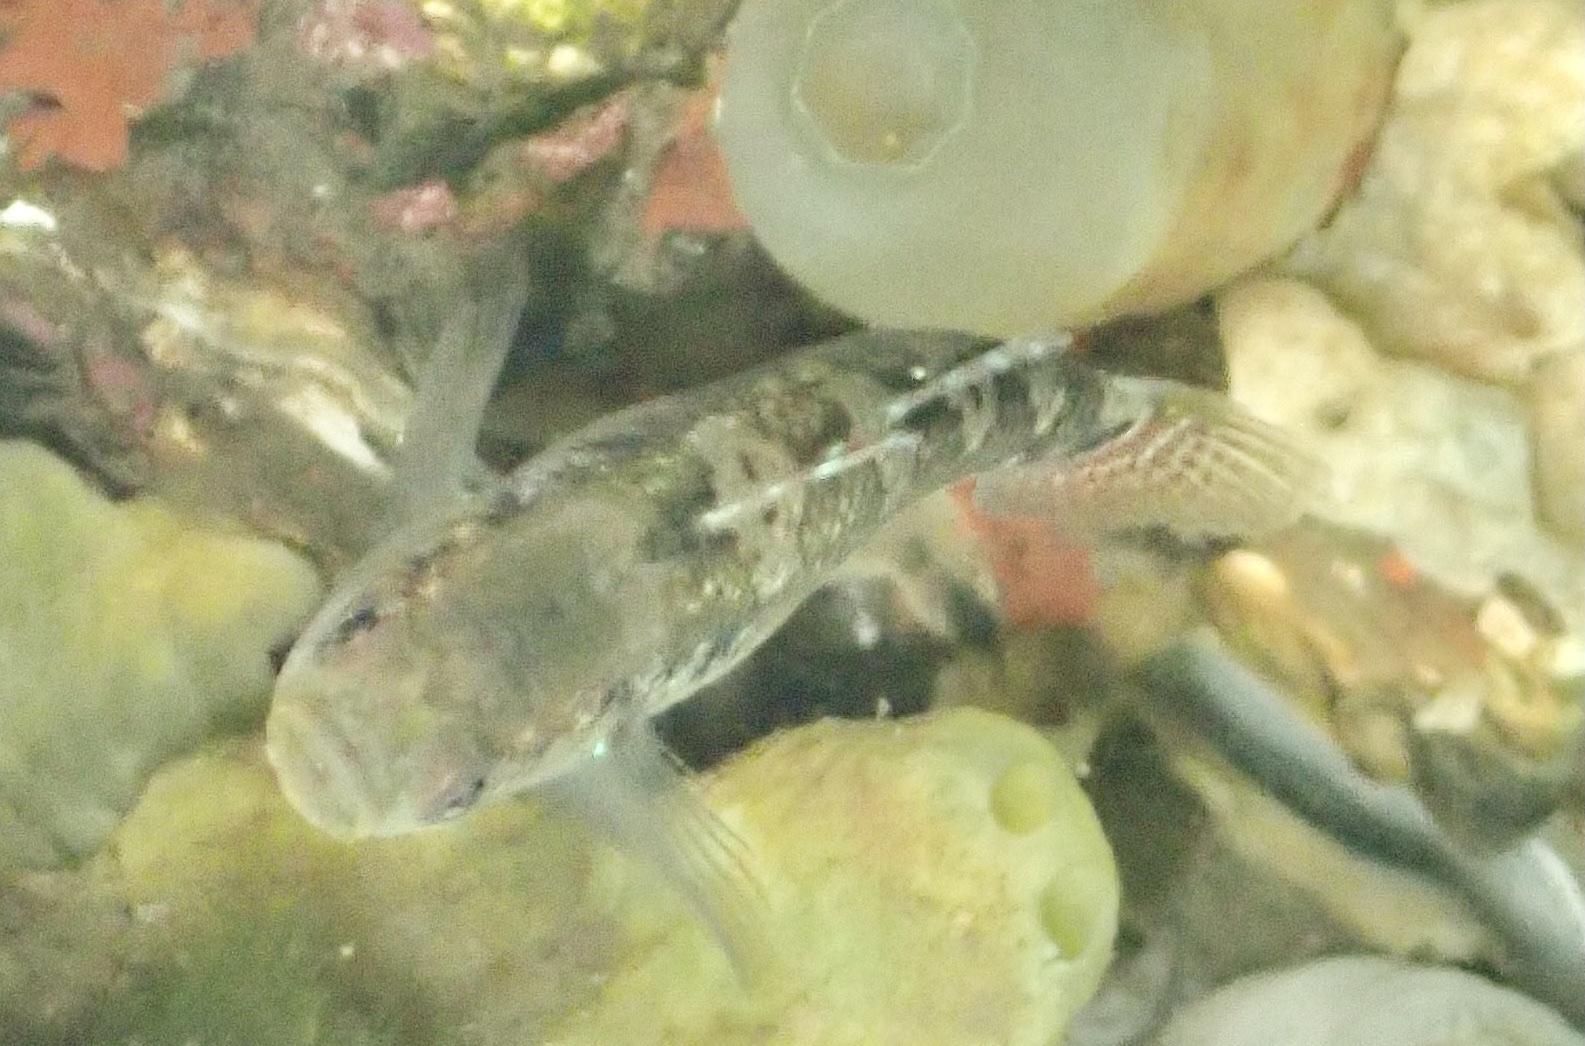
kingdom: Animalia
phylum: Chordata
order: Perciformes
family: Gobiidae
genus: Gobiusculus
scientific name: Gobiusculus flavescens
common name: Two-spotted goby
